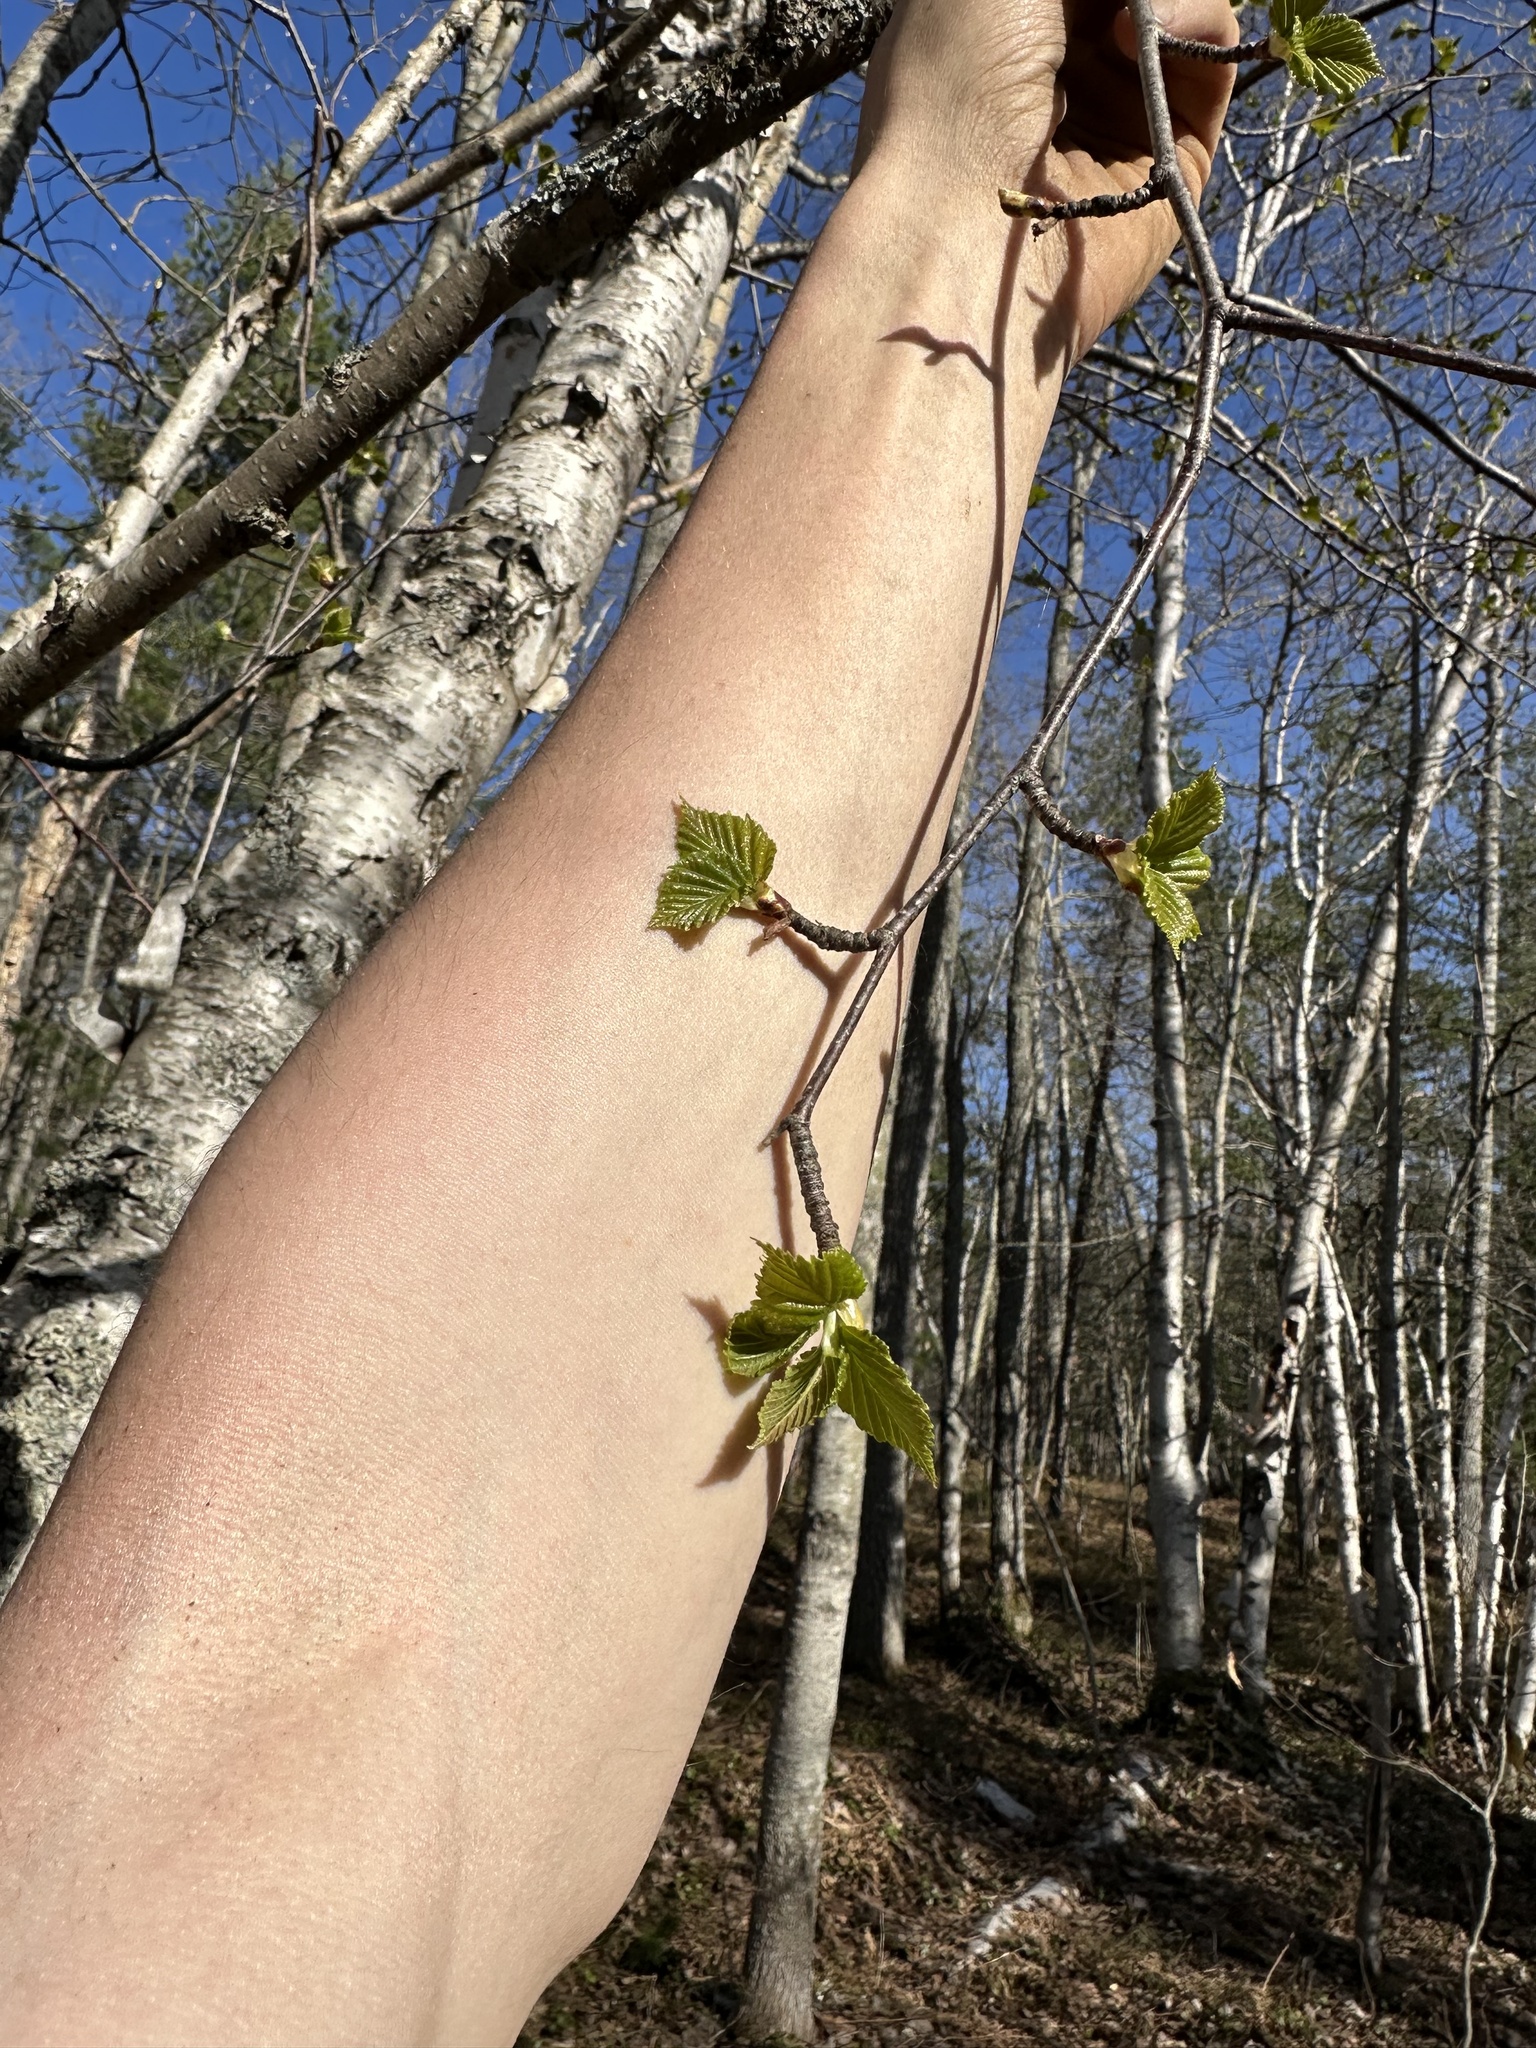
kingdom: Plantae
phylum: Tracheophyta
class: Magnoliopsida
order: Fagales
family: Betulaceae
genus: Betula
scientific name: Betula papyrifera
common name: Paper birch
